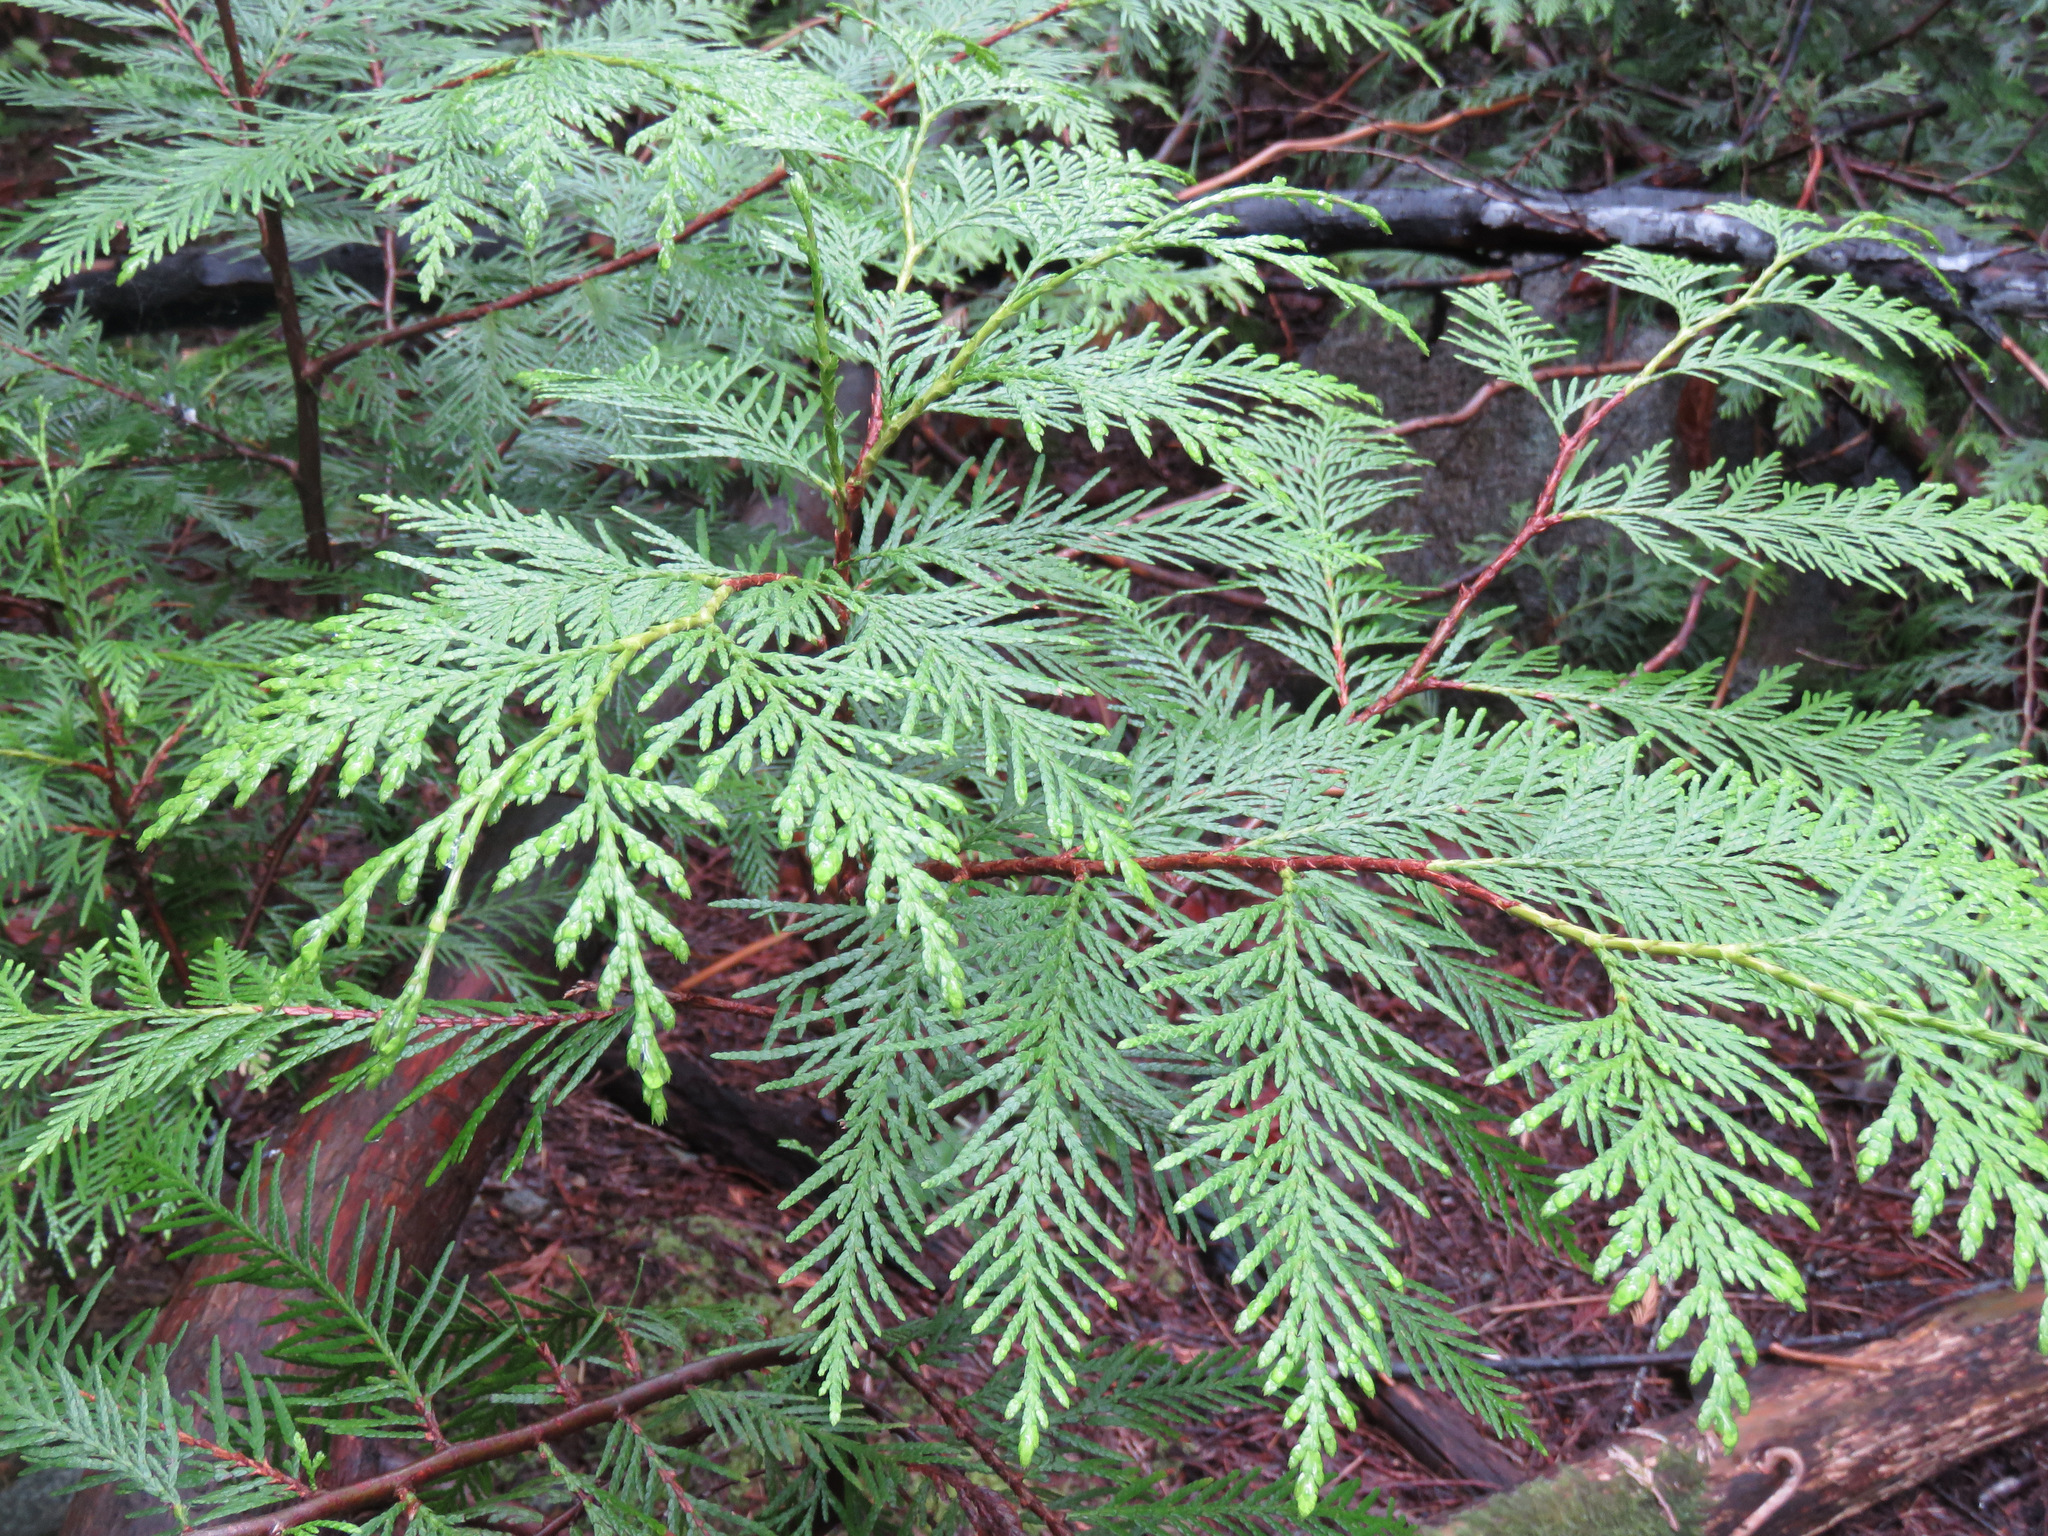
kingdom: Plantae
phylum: Tracheophyta
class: Pinopsida
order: Pinales
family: Cupressaceae
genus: Thuja
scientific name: Thuja plicata
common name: Western red-cedar
